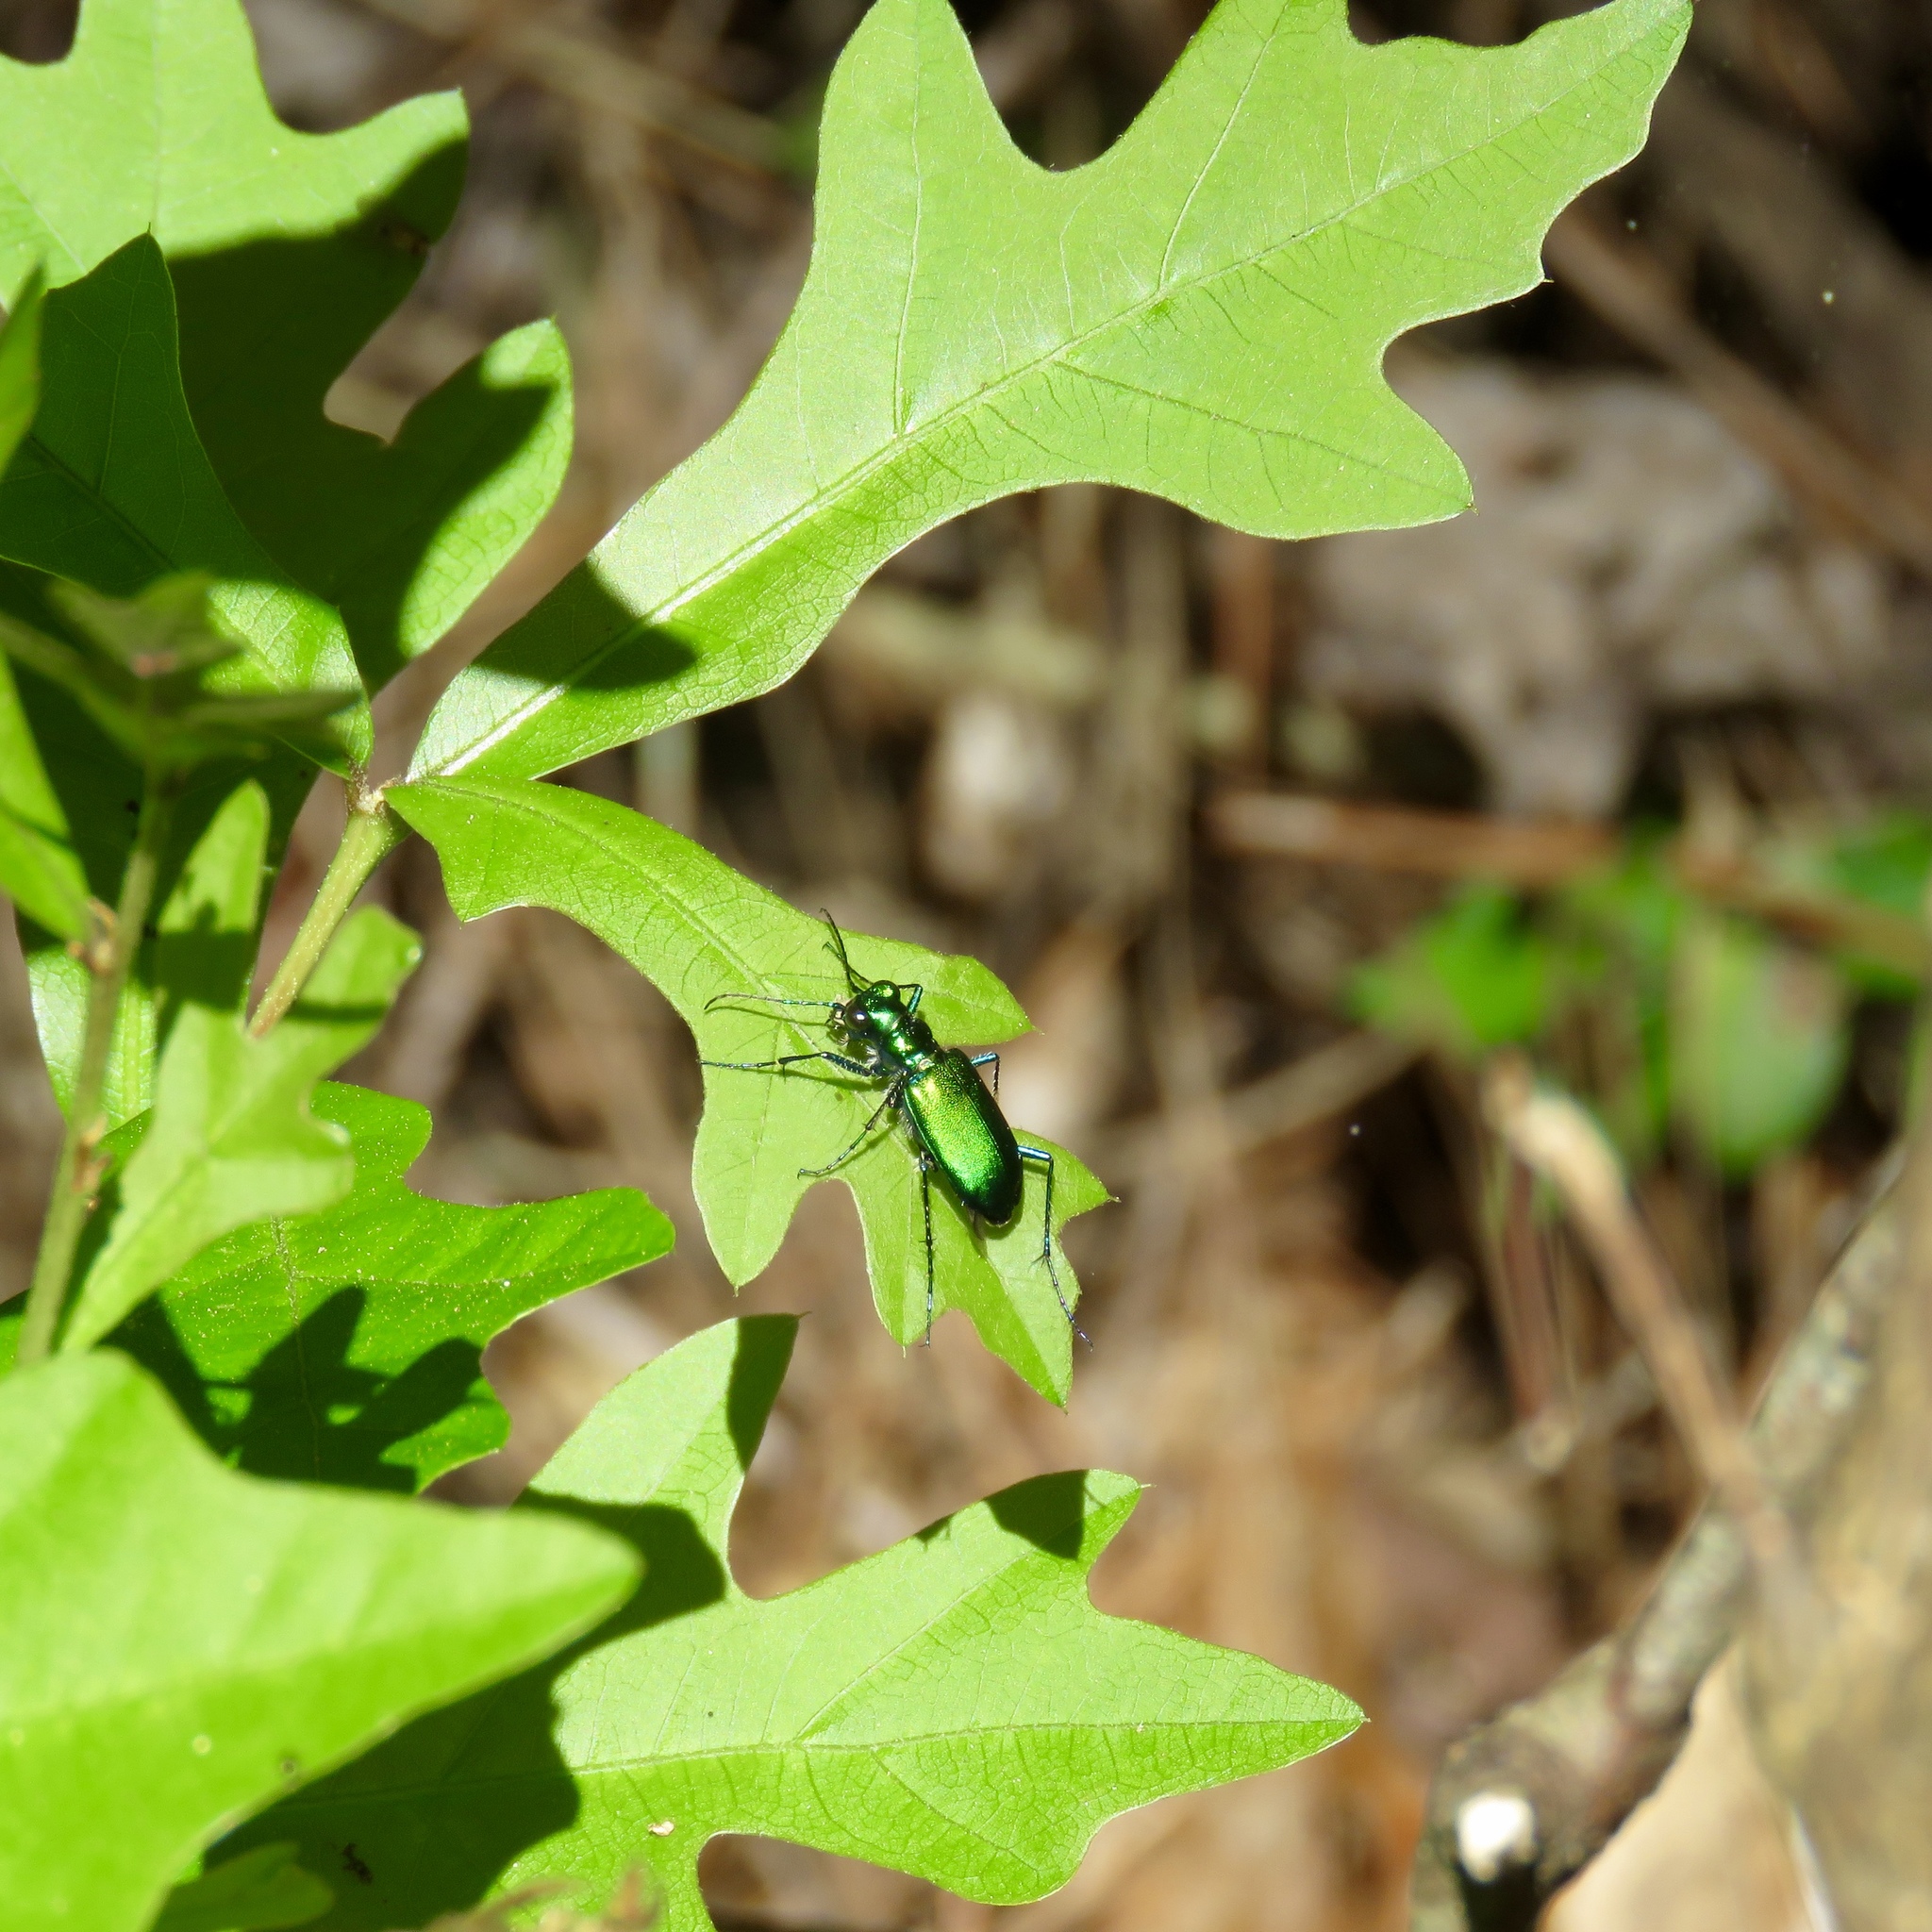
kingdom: Animalia
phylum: Arthropoda
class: Insecta
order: Coleoptera
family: Carabidae
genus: Cicindela
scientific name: Cicindela sexguttata
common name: Six-spotted tiger beetle
